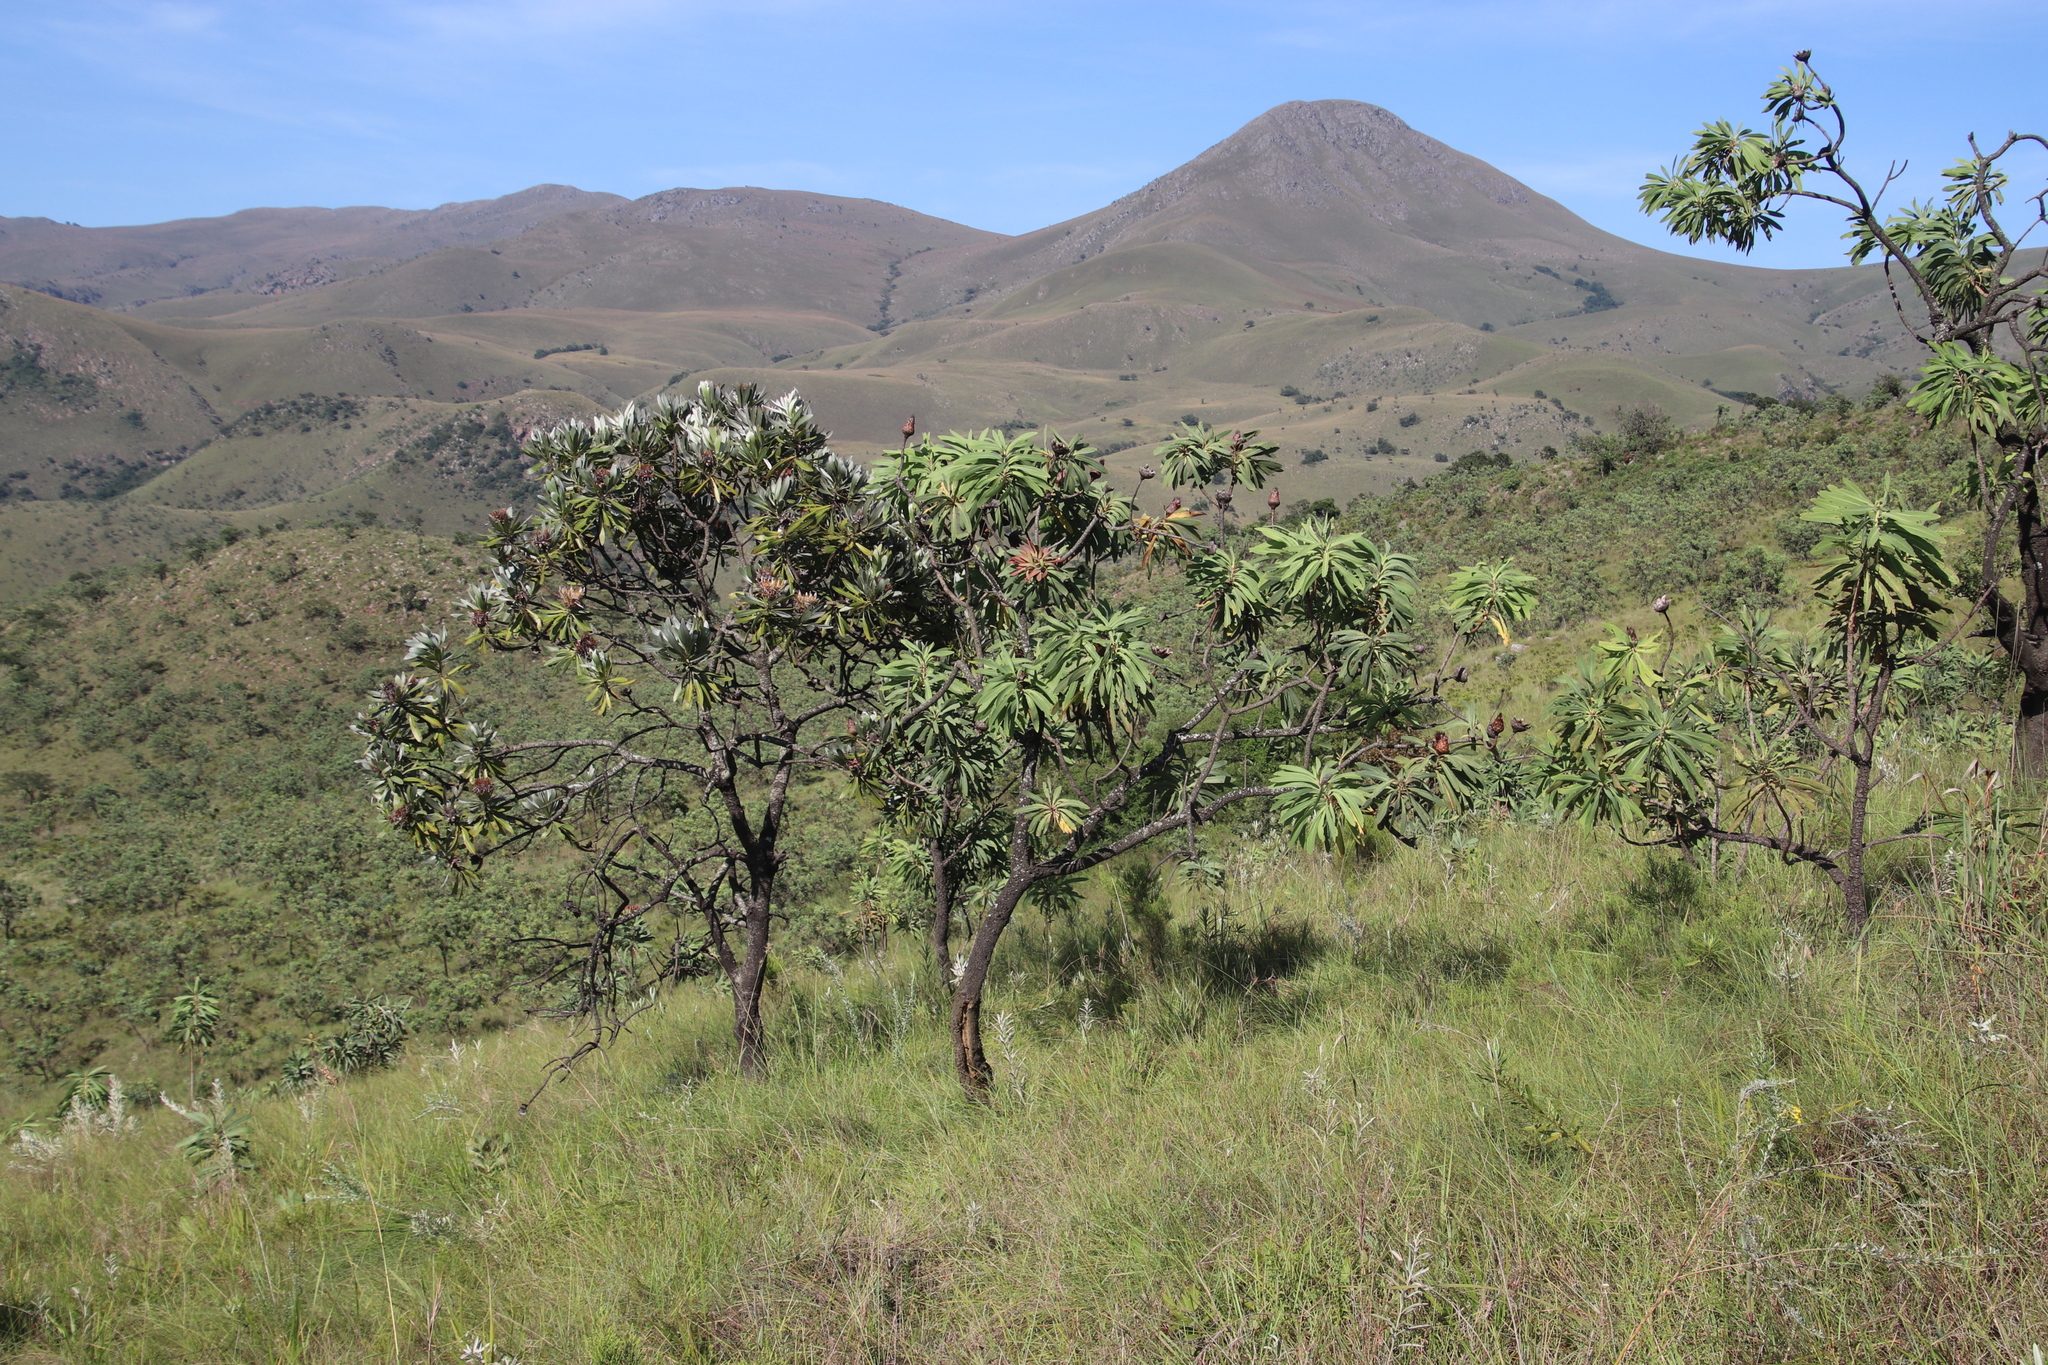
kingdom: Plantae
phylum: Tracheophyta
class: Magnoliopsida
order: Proteales
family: Proteaceae
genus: Protea
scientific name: Protea caffra
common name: Common sugarbush
